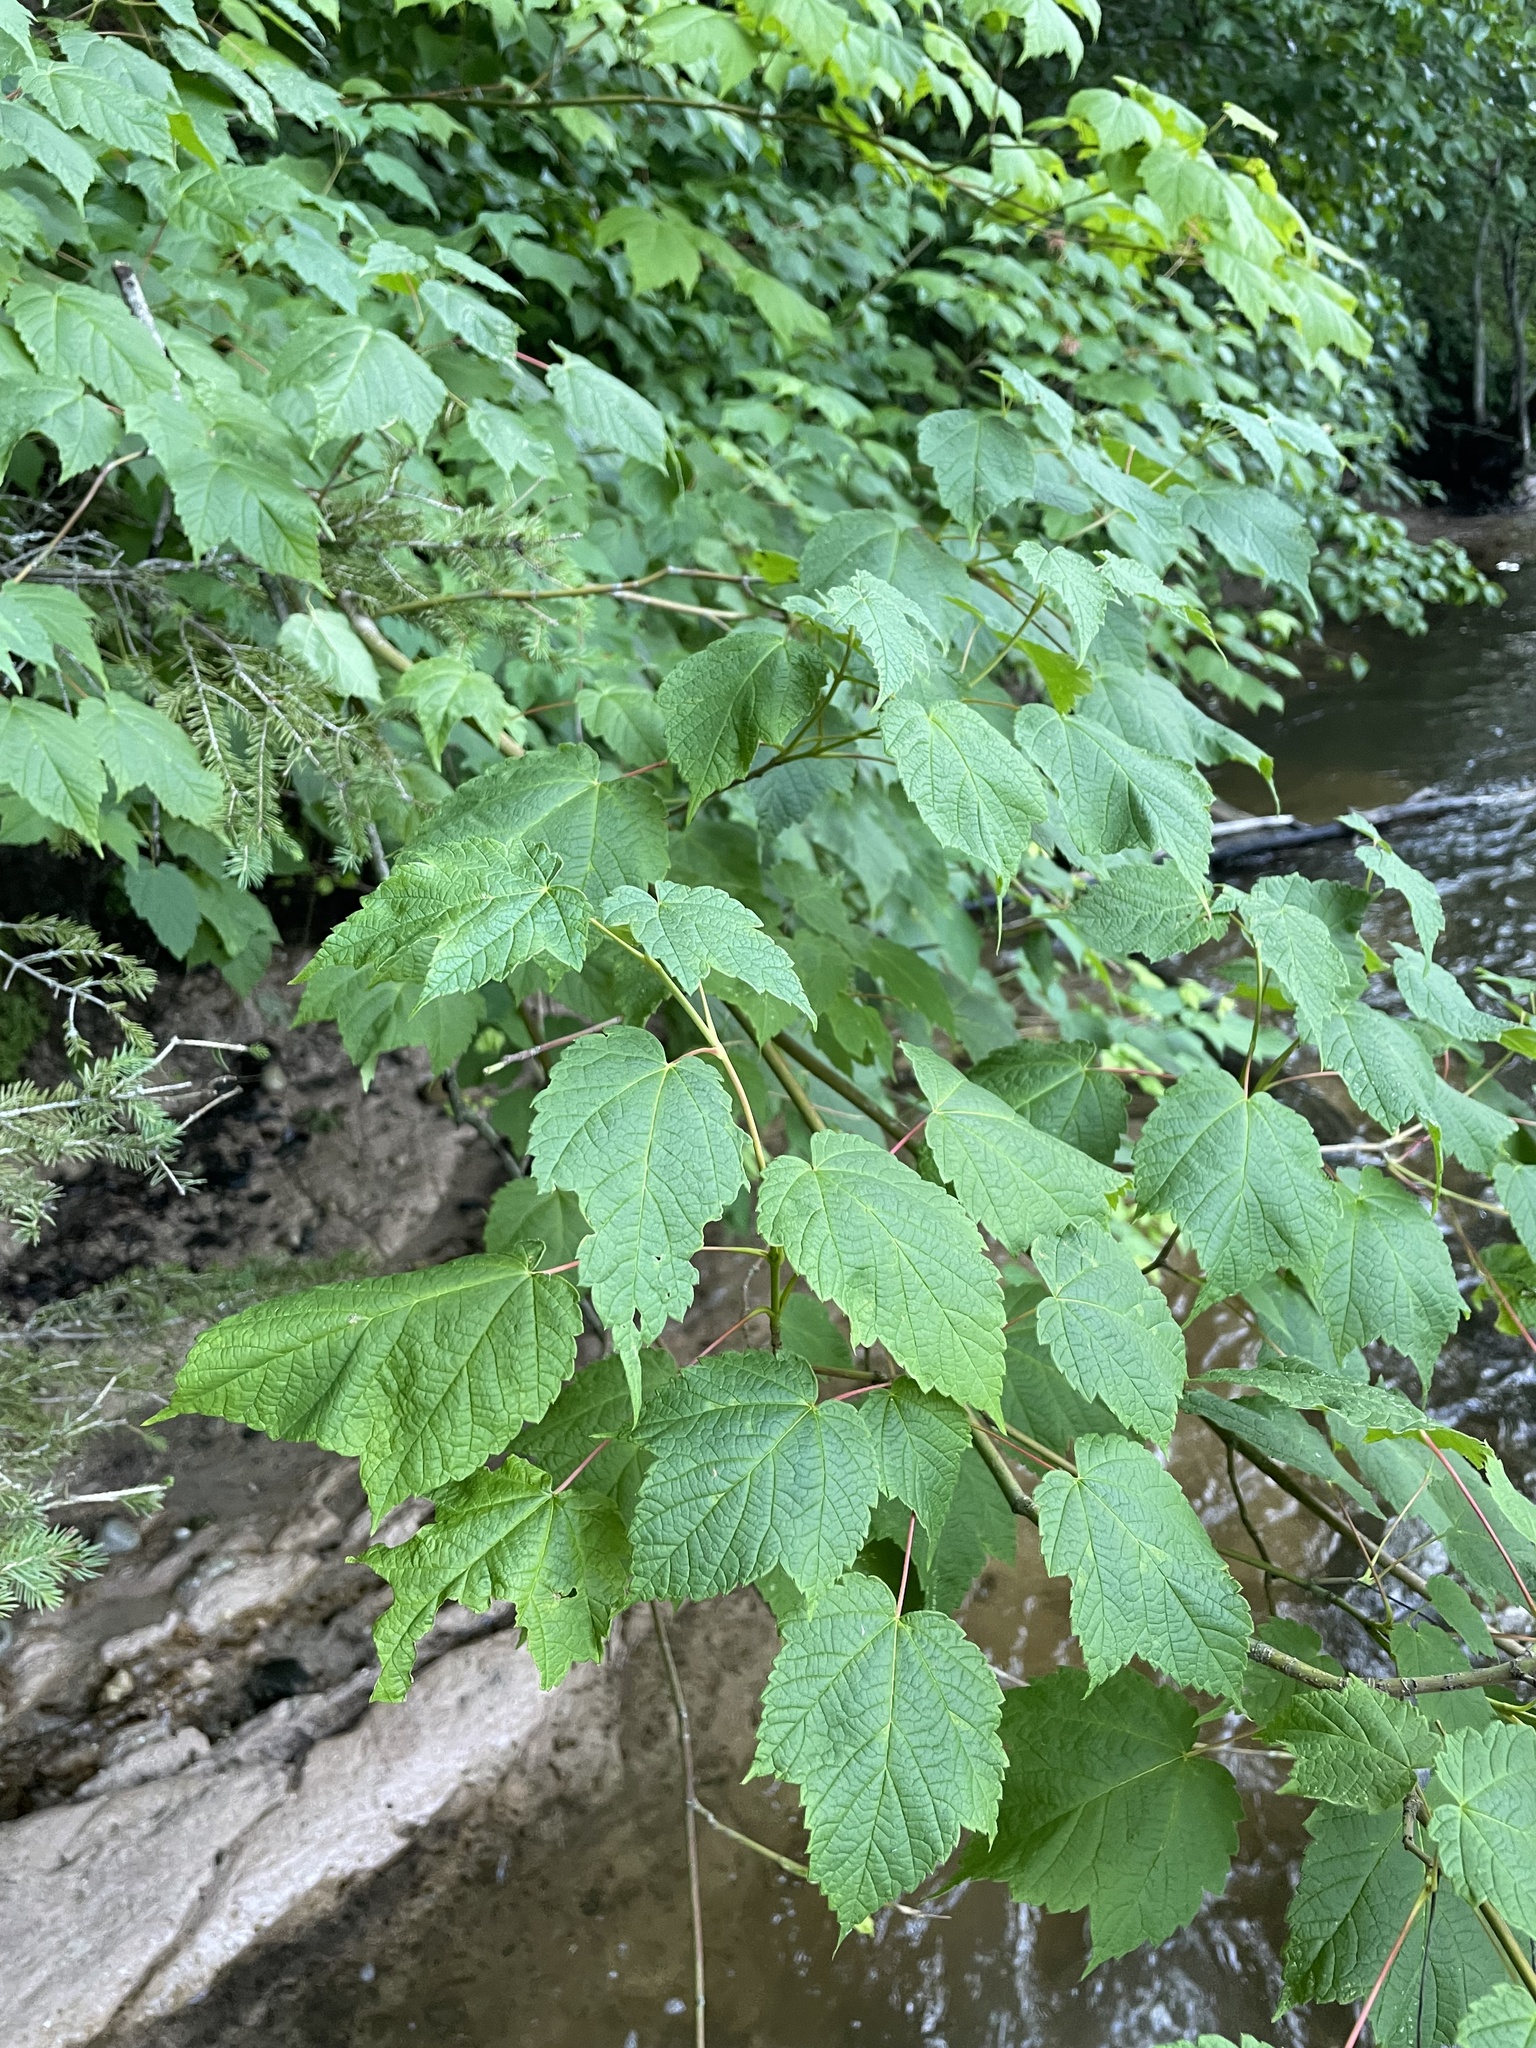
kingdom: Plantae
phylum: Tracheophyta
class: Magnoliopsida
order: Sapindales
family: Sapindaceae
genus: Acer
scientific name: Acer spicatum
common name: Mountain maple
